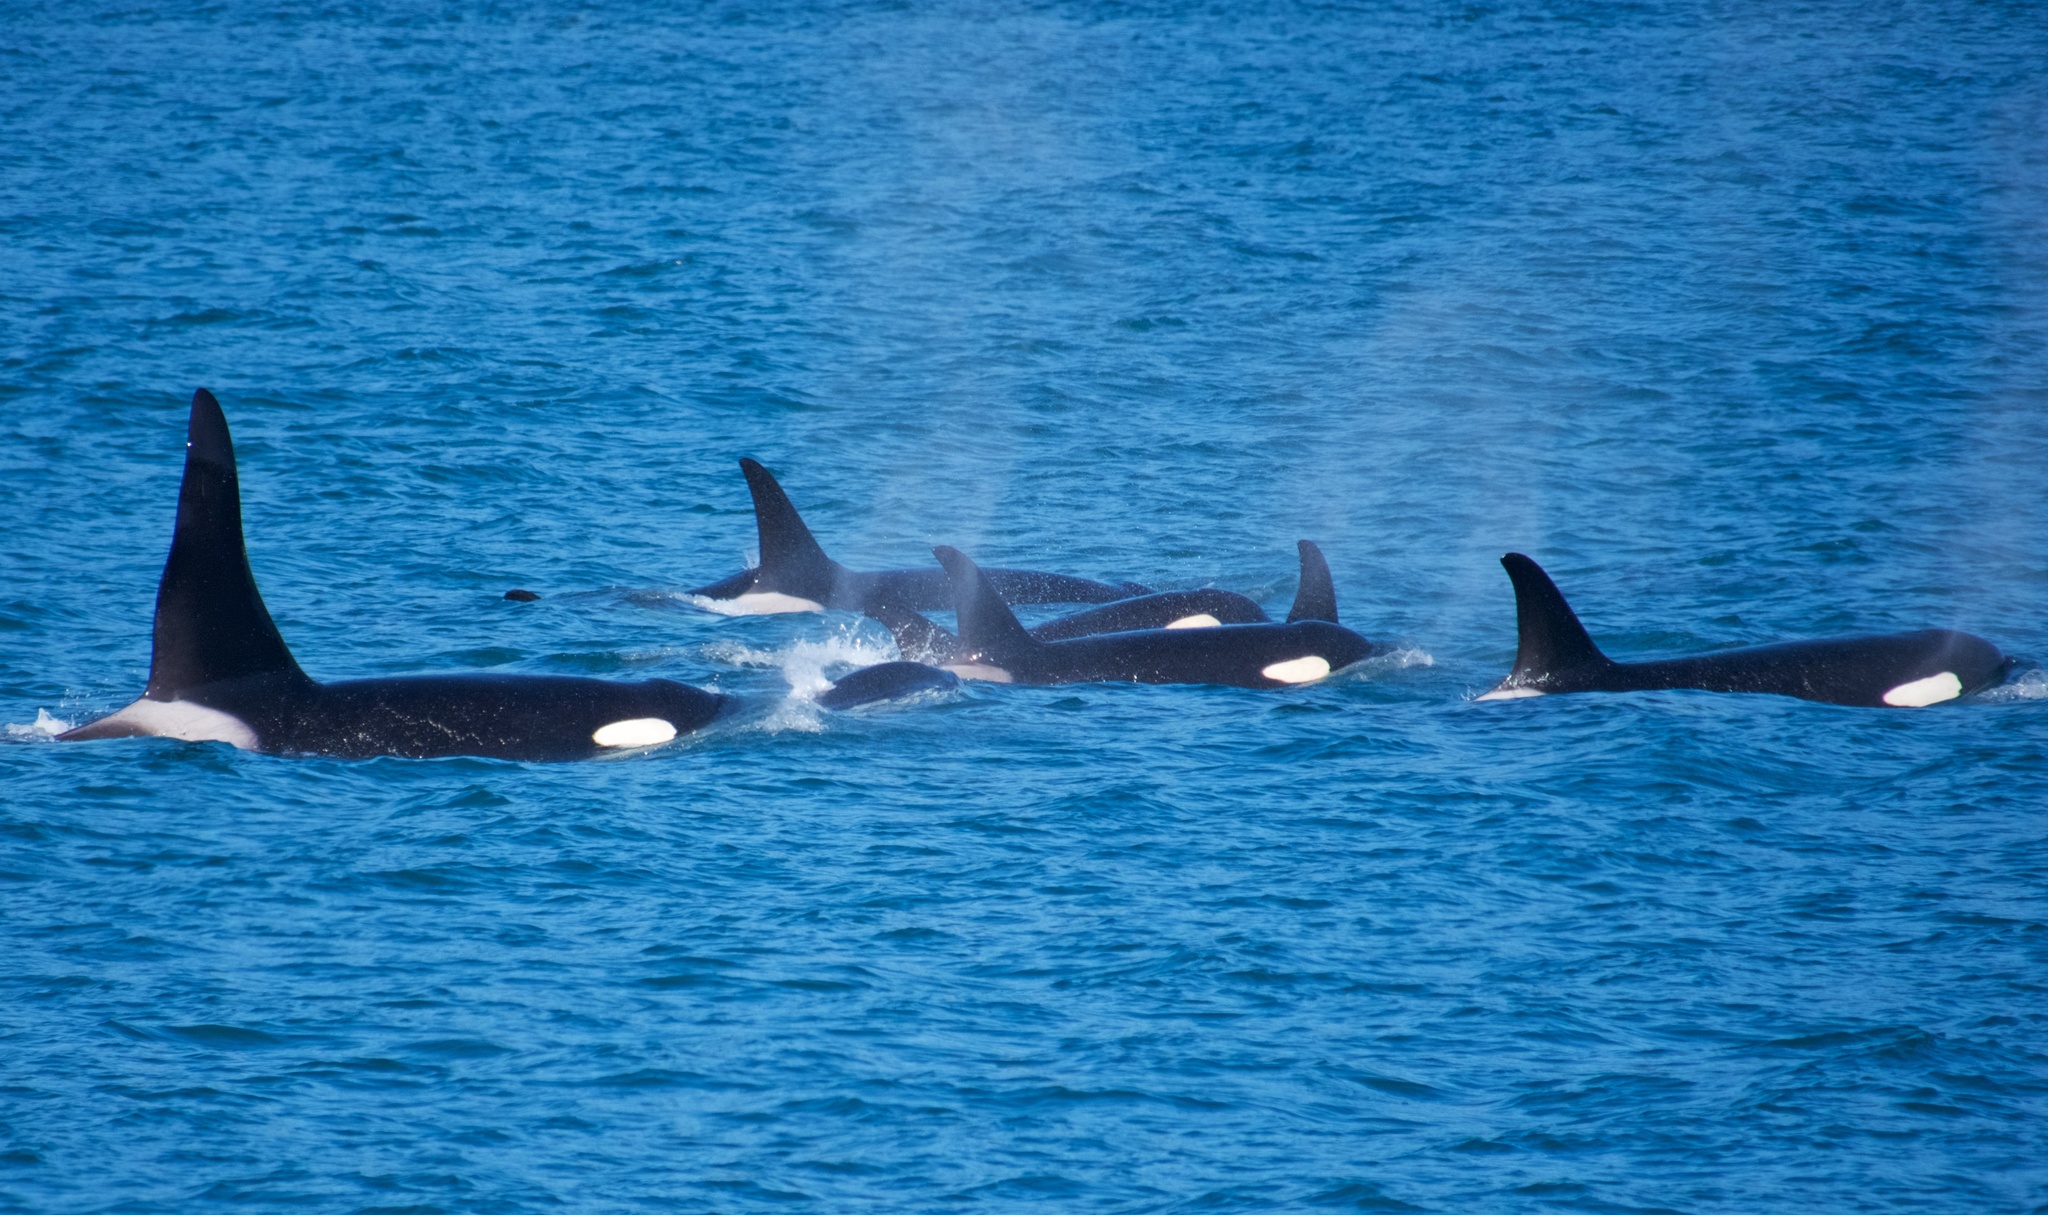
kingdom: Animalia
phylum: Chordata
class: Mammalia
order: Cetacea
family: Delphinidae
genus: Orcinus
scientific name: Orcinus orca
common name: Killer whale
